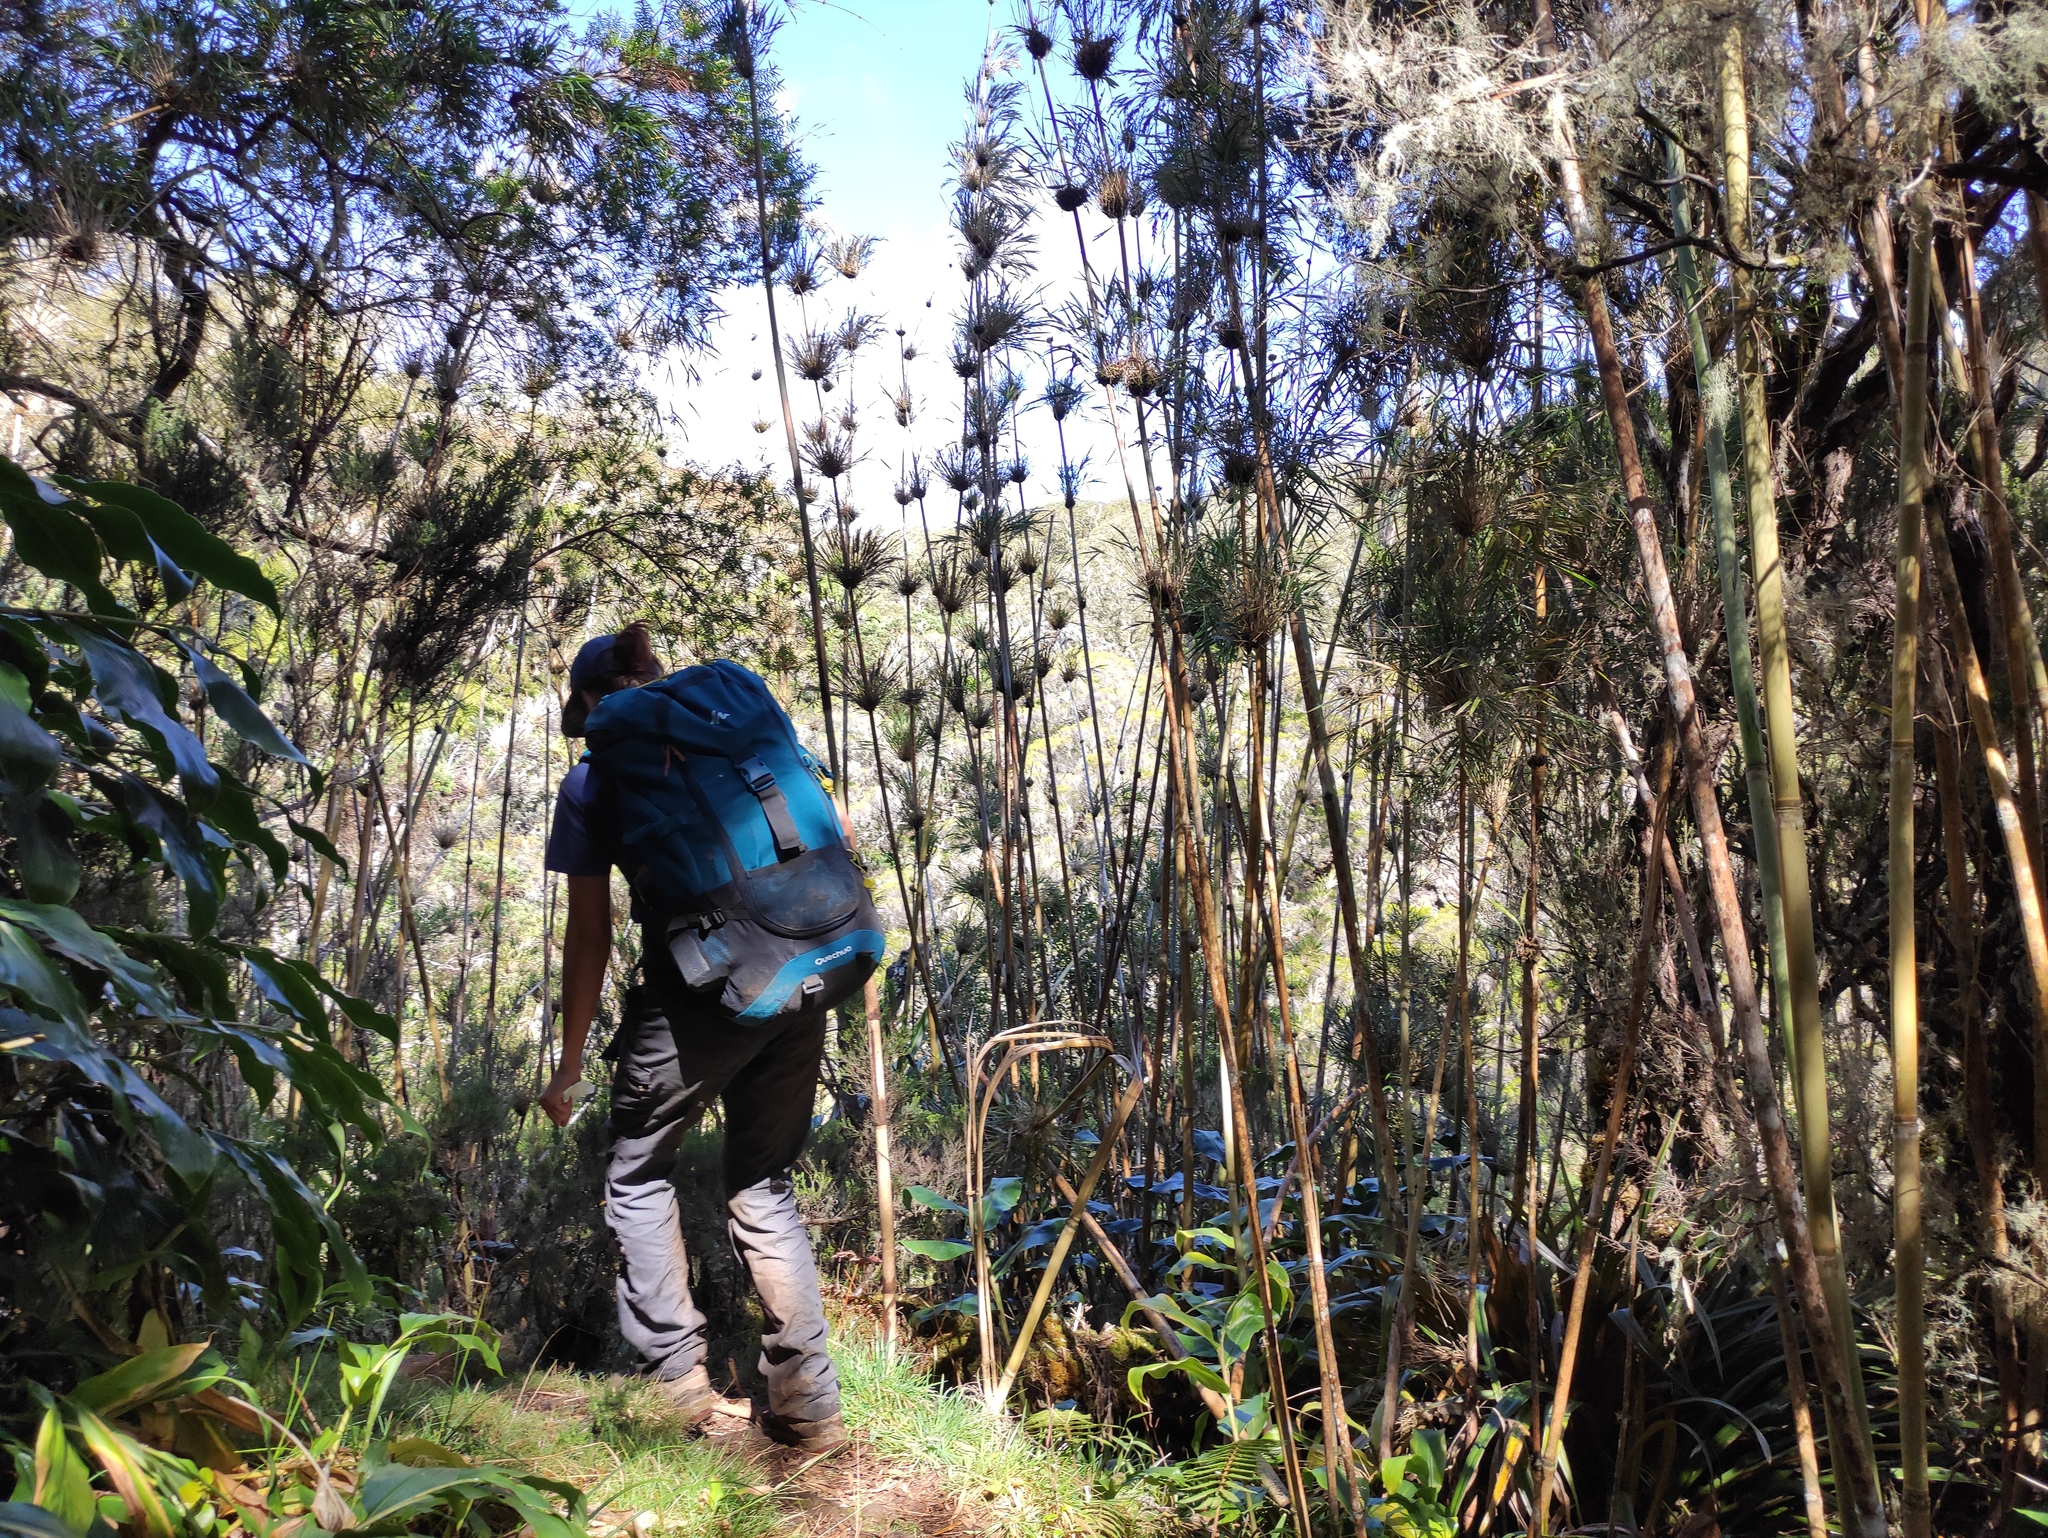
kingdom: Plantae
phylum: Tracheophyta
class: Liliopsida
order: Poales
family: Poaceae
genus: Nastus
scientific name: Nastus borbonicus
